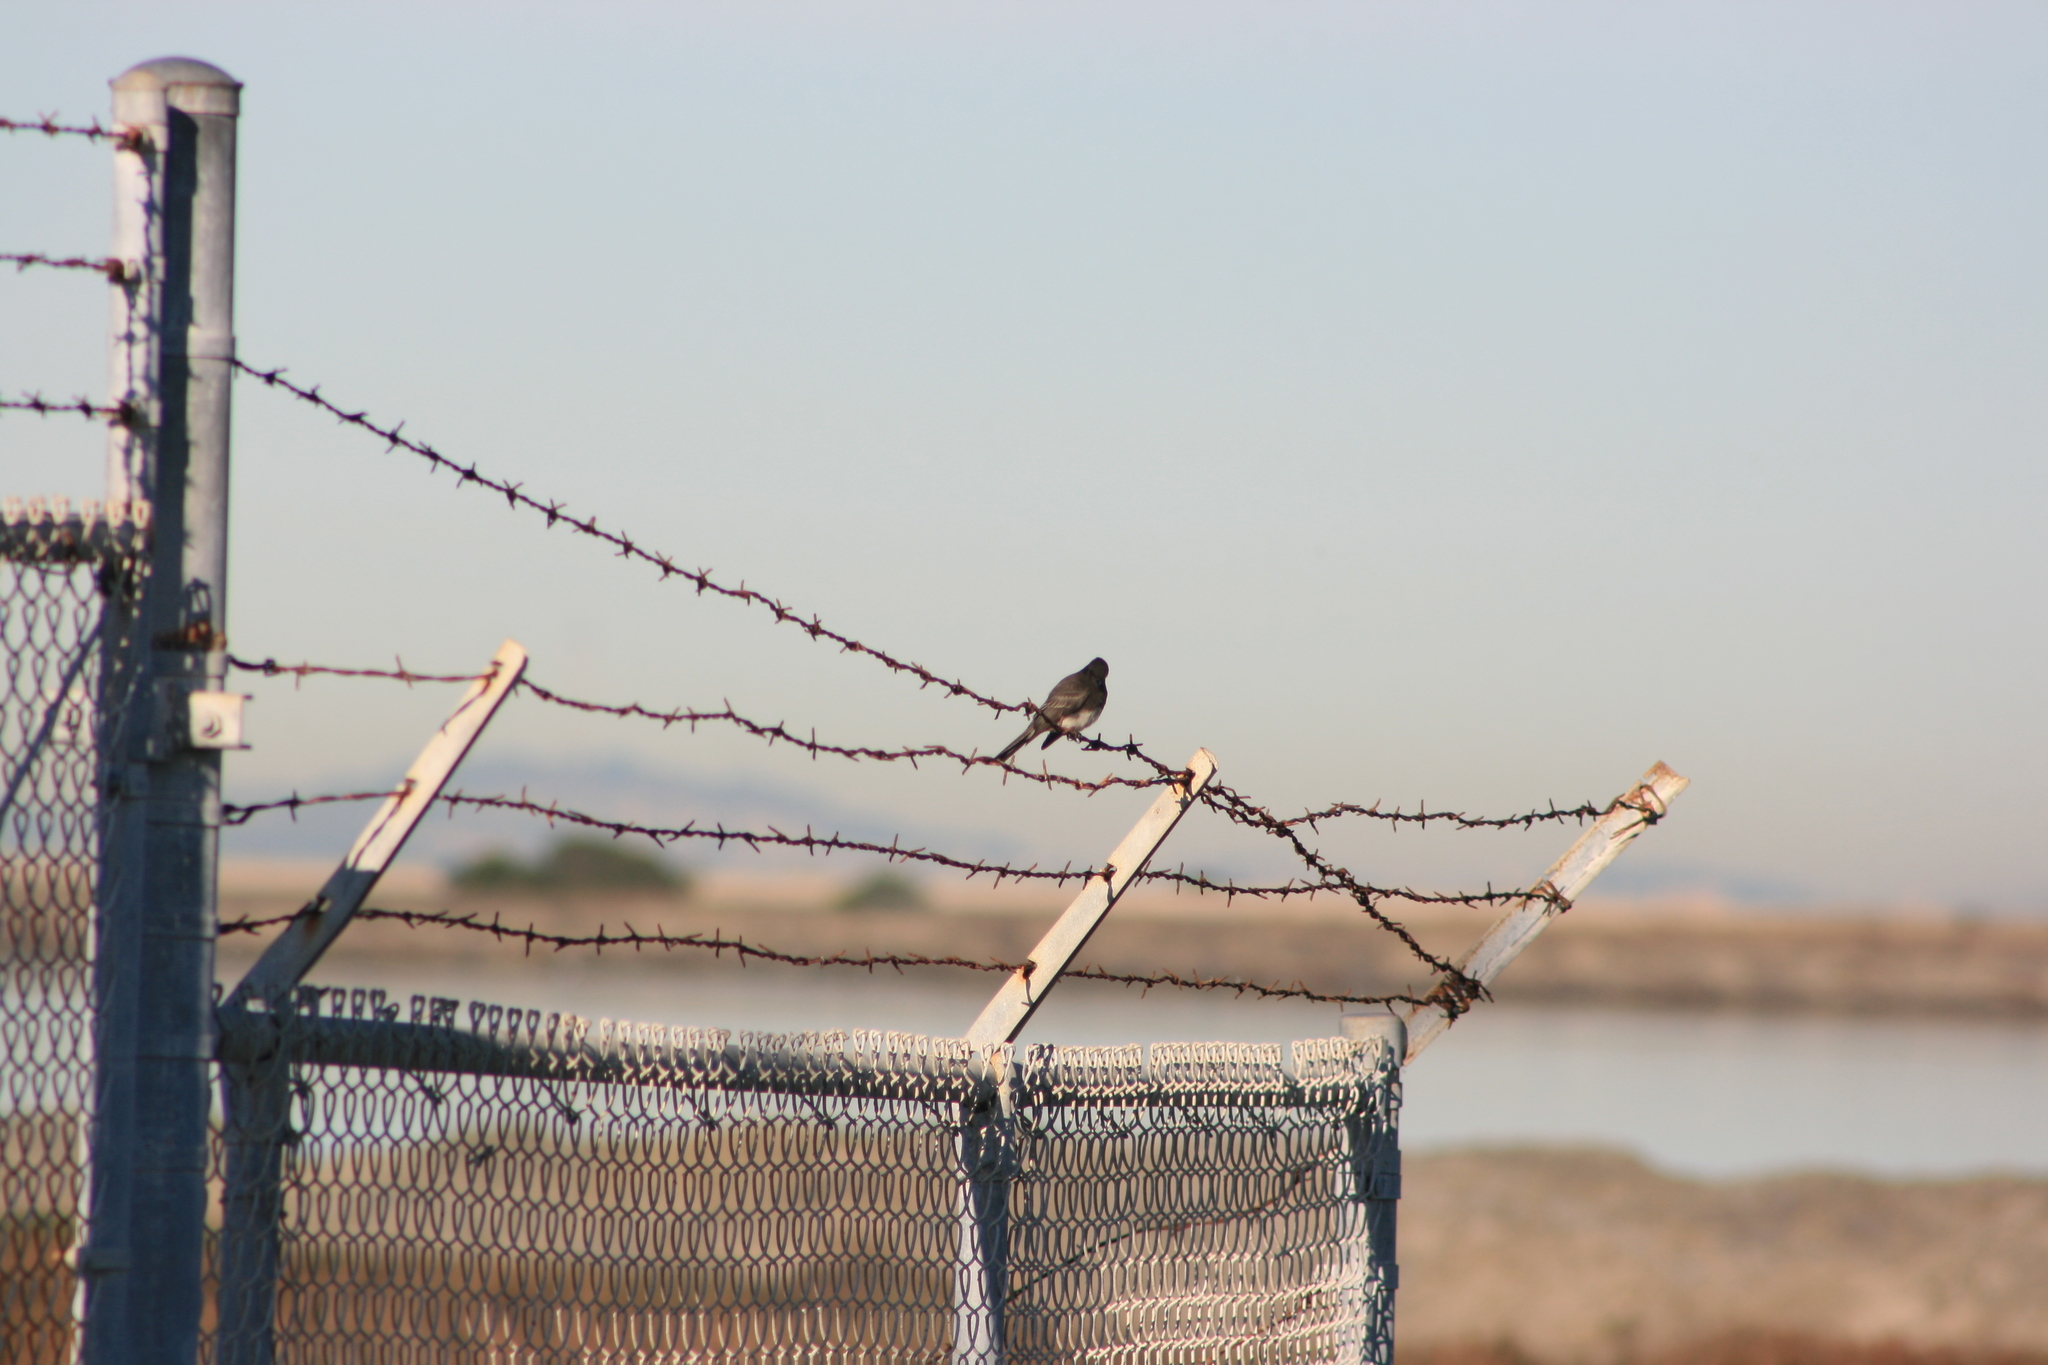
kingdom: Animalia
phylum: Chordata
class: Aves
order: Passeriformes
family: Tyrannidae
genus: Sayornis
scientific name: Sayornis nigricans
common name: Black phoebe
